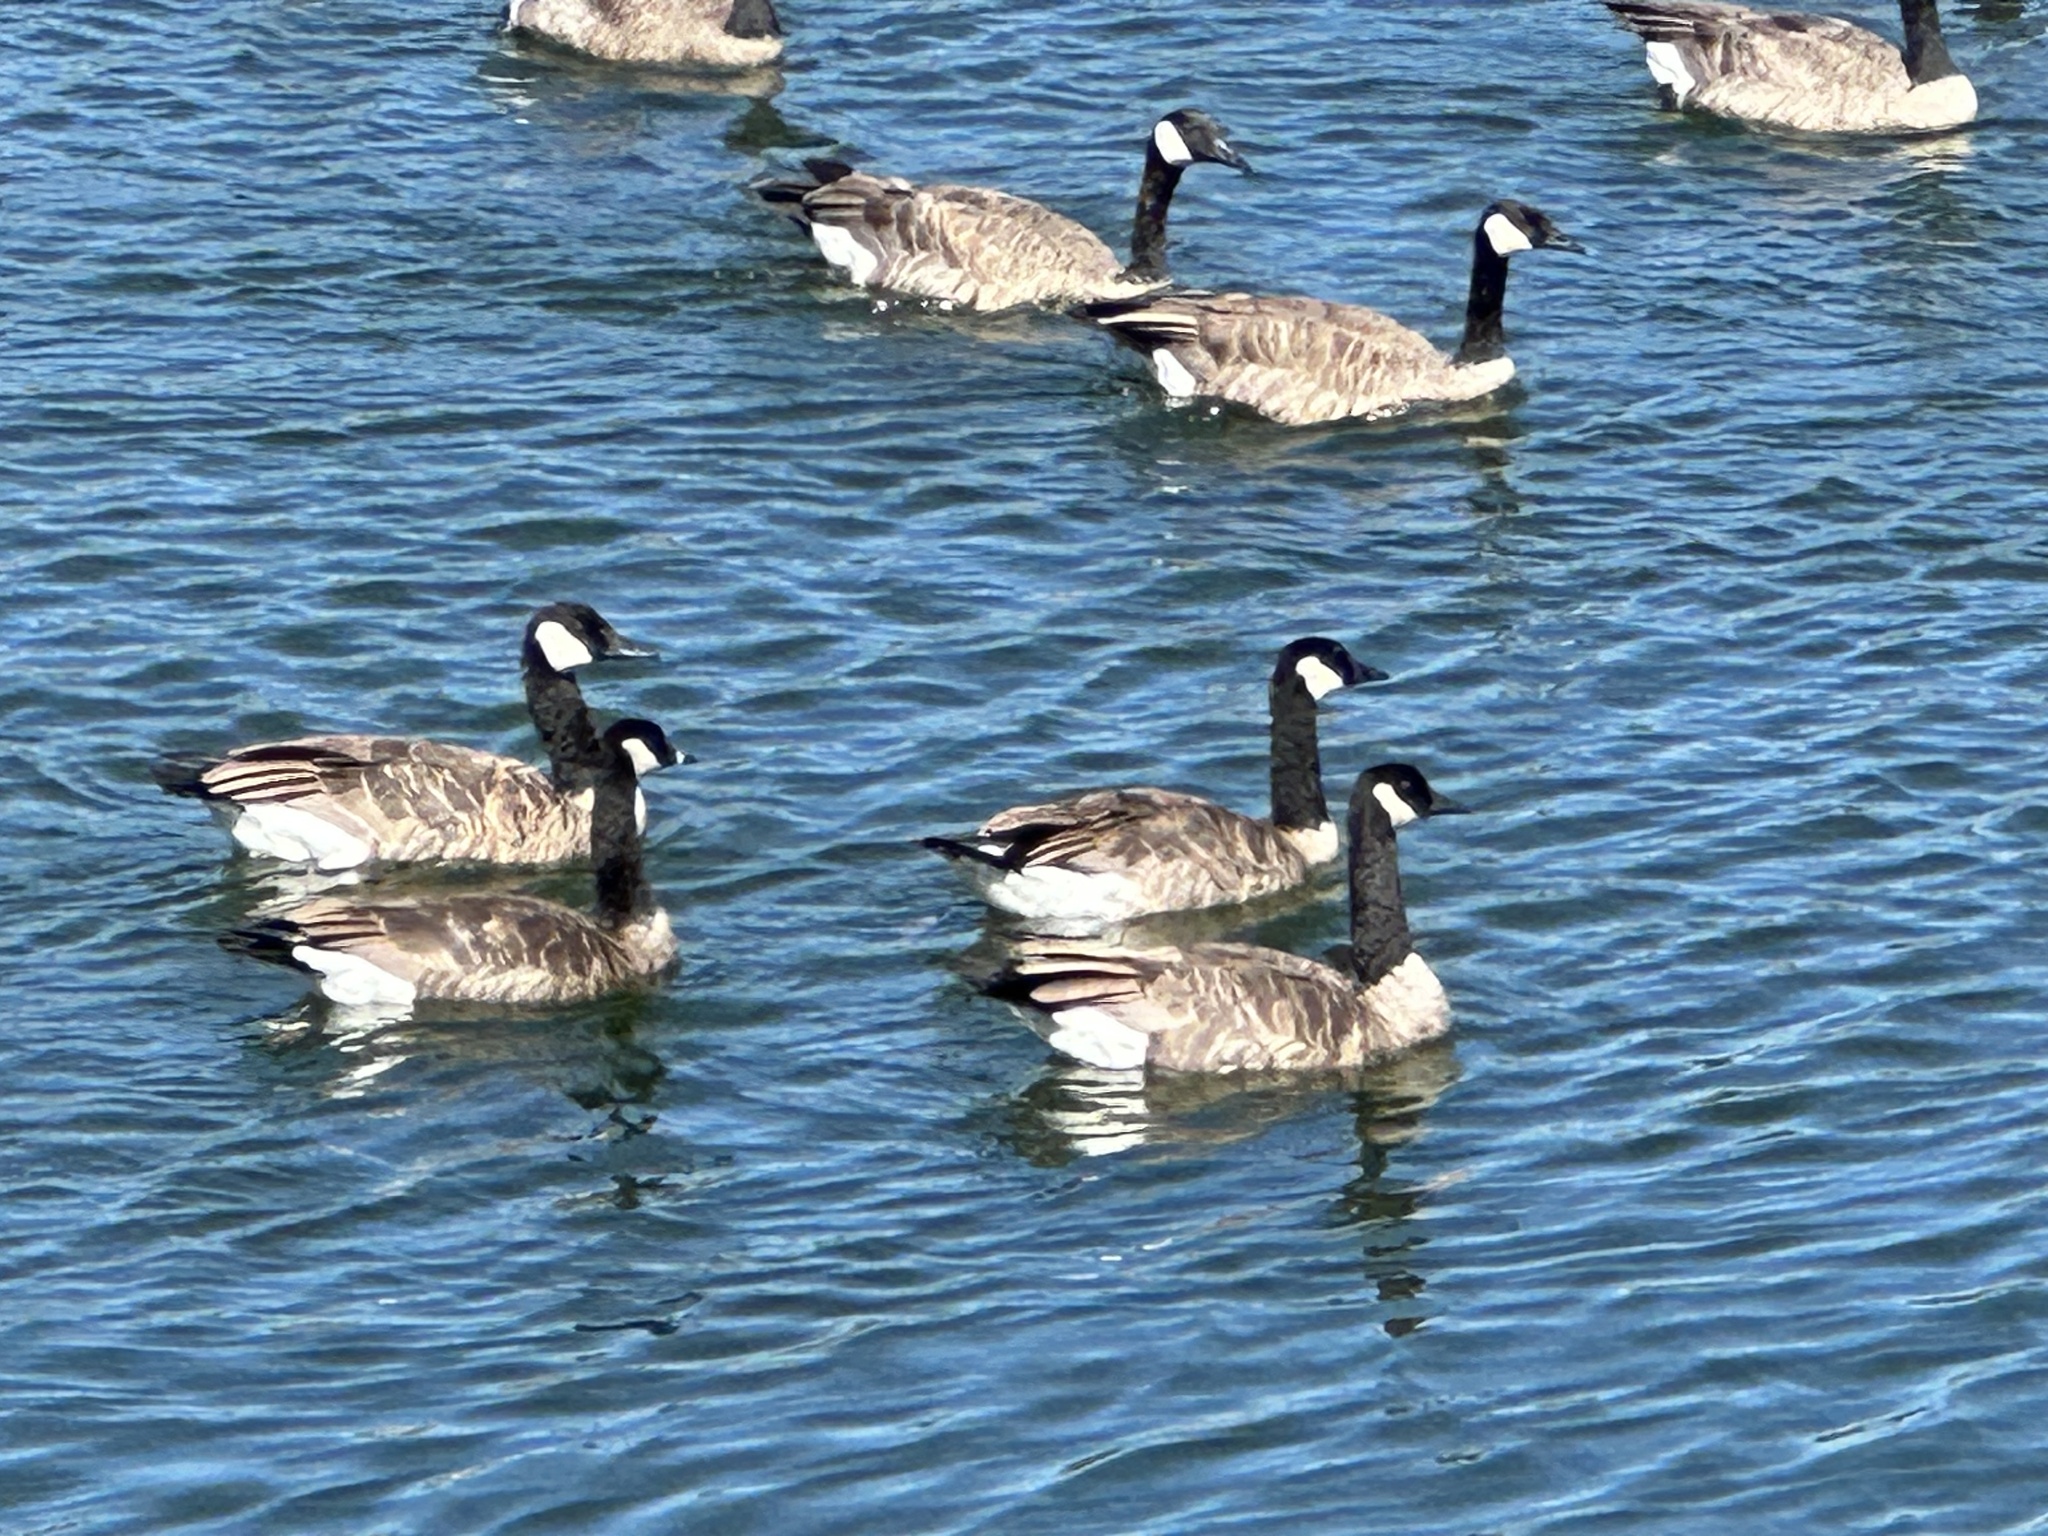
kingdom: Animalia
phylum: Chordata
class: Aves
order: Anseriformes
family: Anatidae
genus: Branta
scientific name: Branta canadensis
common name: Canada goose
